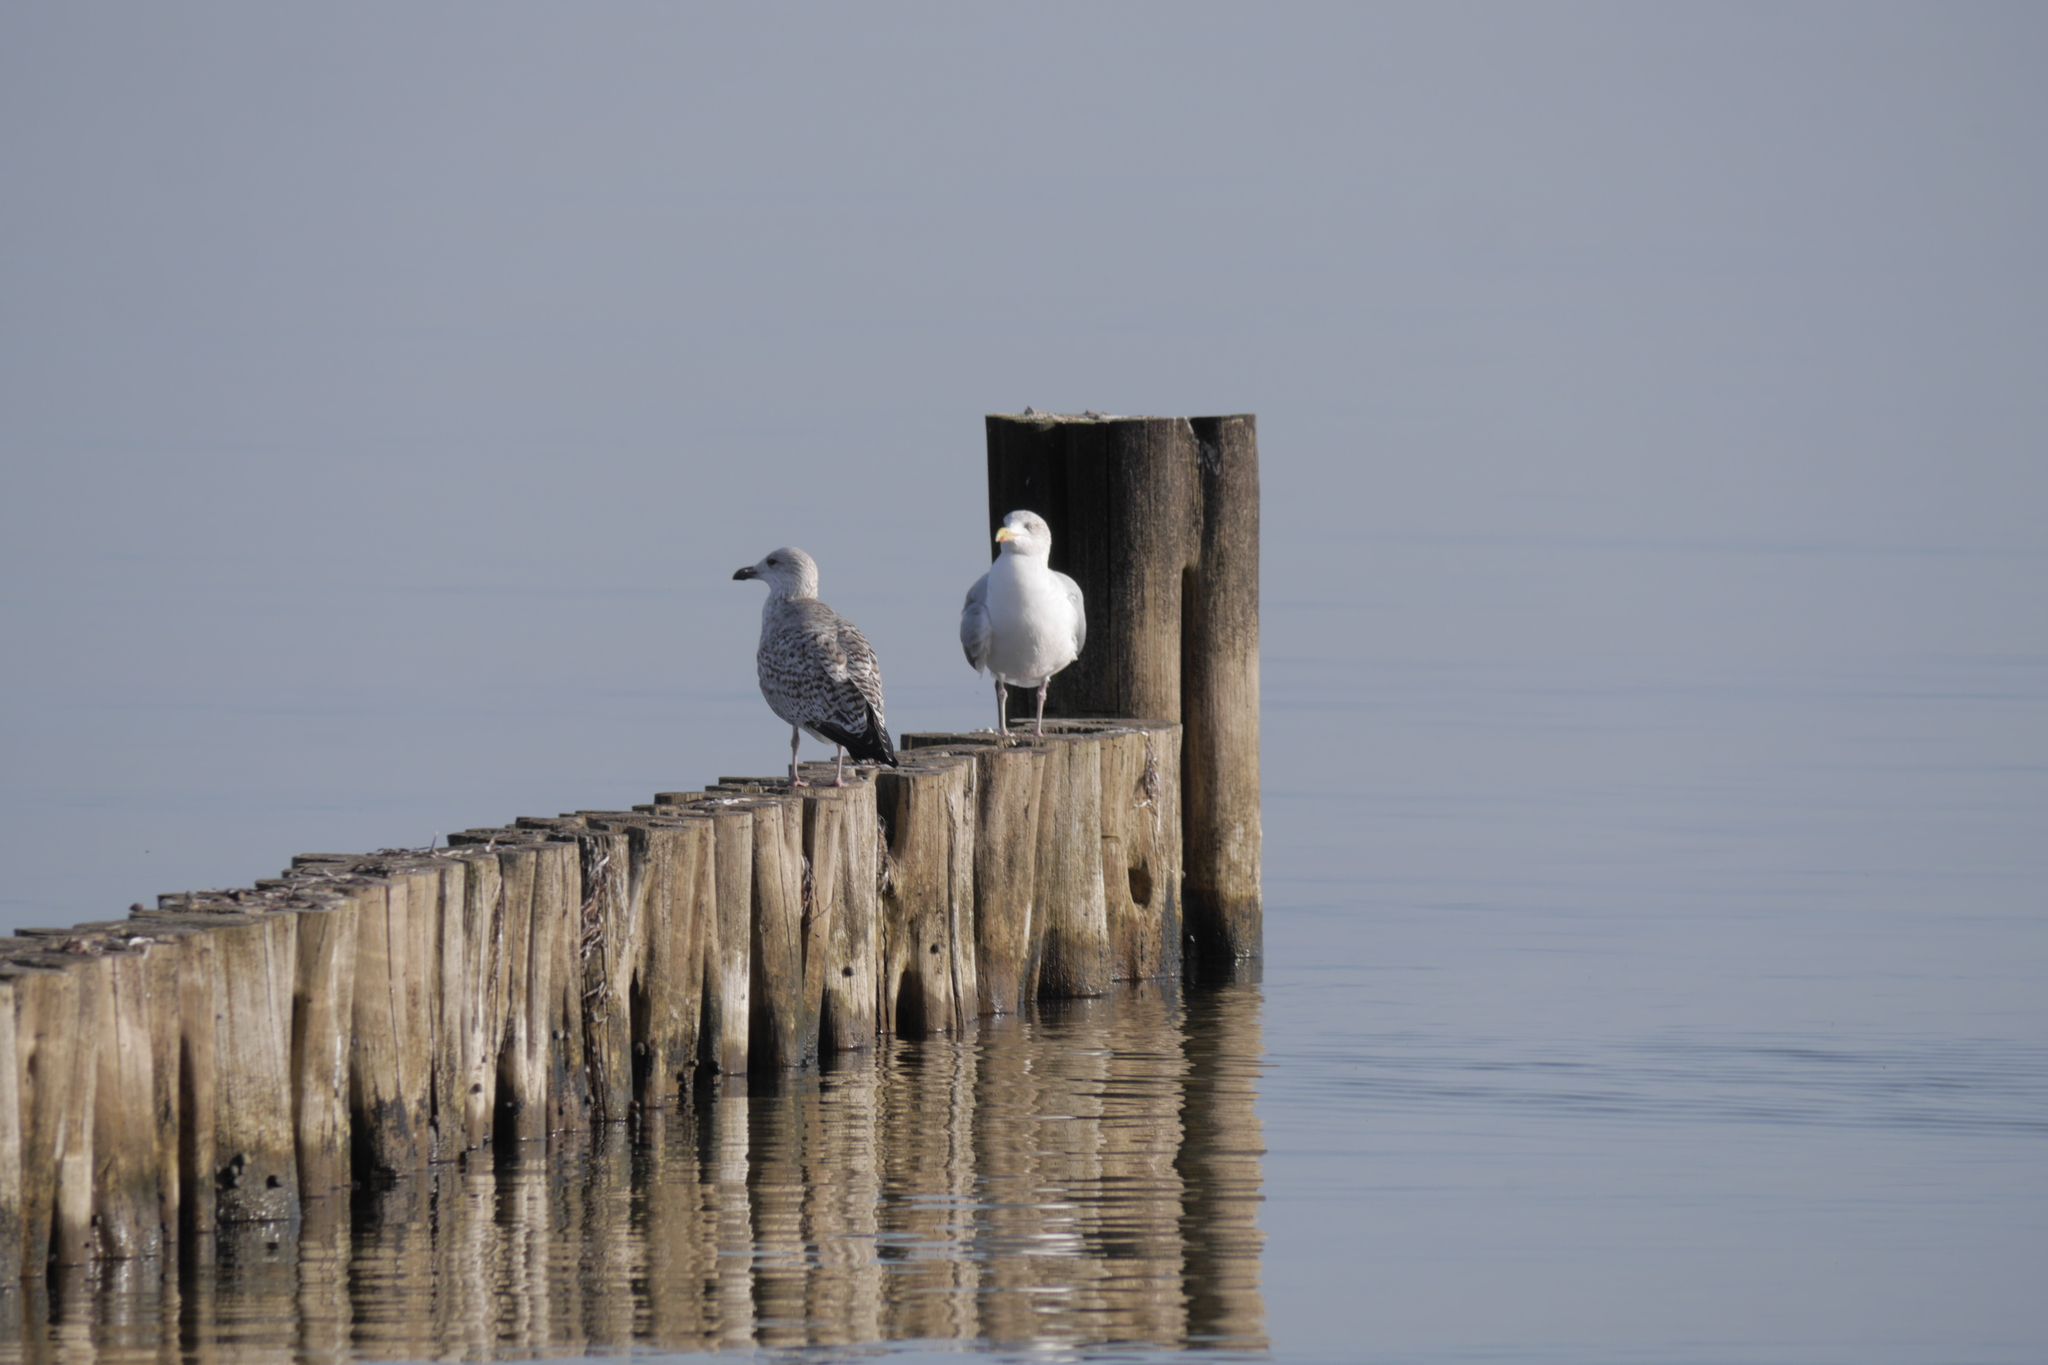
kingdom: Animalia
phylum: Chordata
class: Aves
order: Charadriiformes
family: Laridae
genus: Larus
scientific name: Larus argentatus
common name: Herring gull
